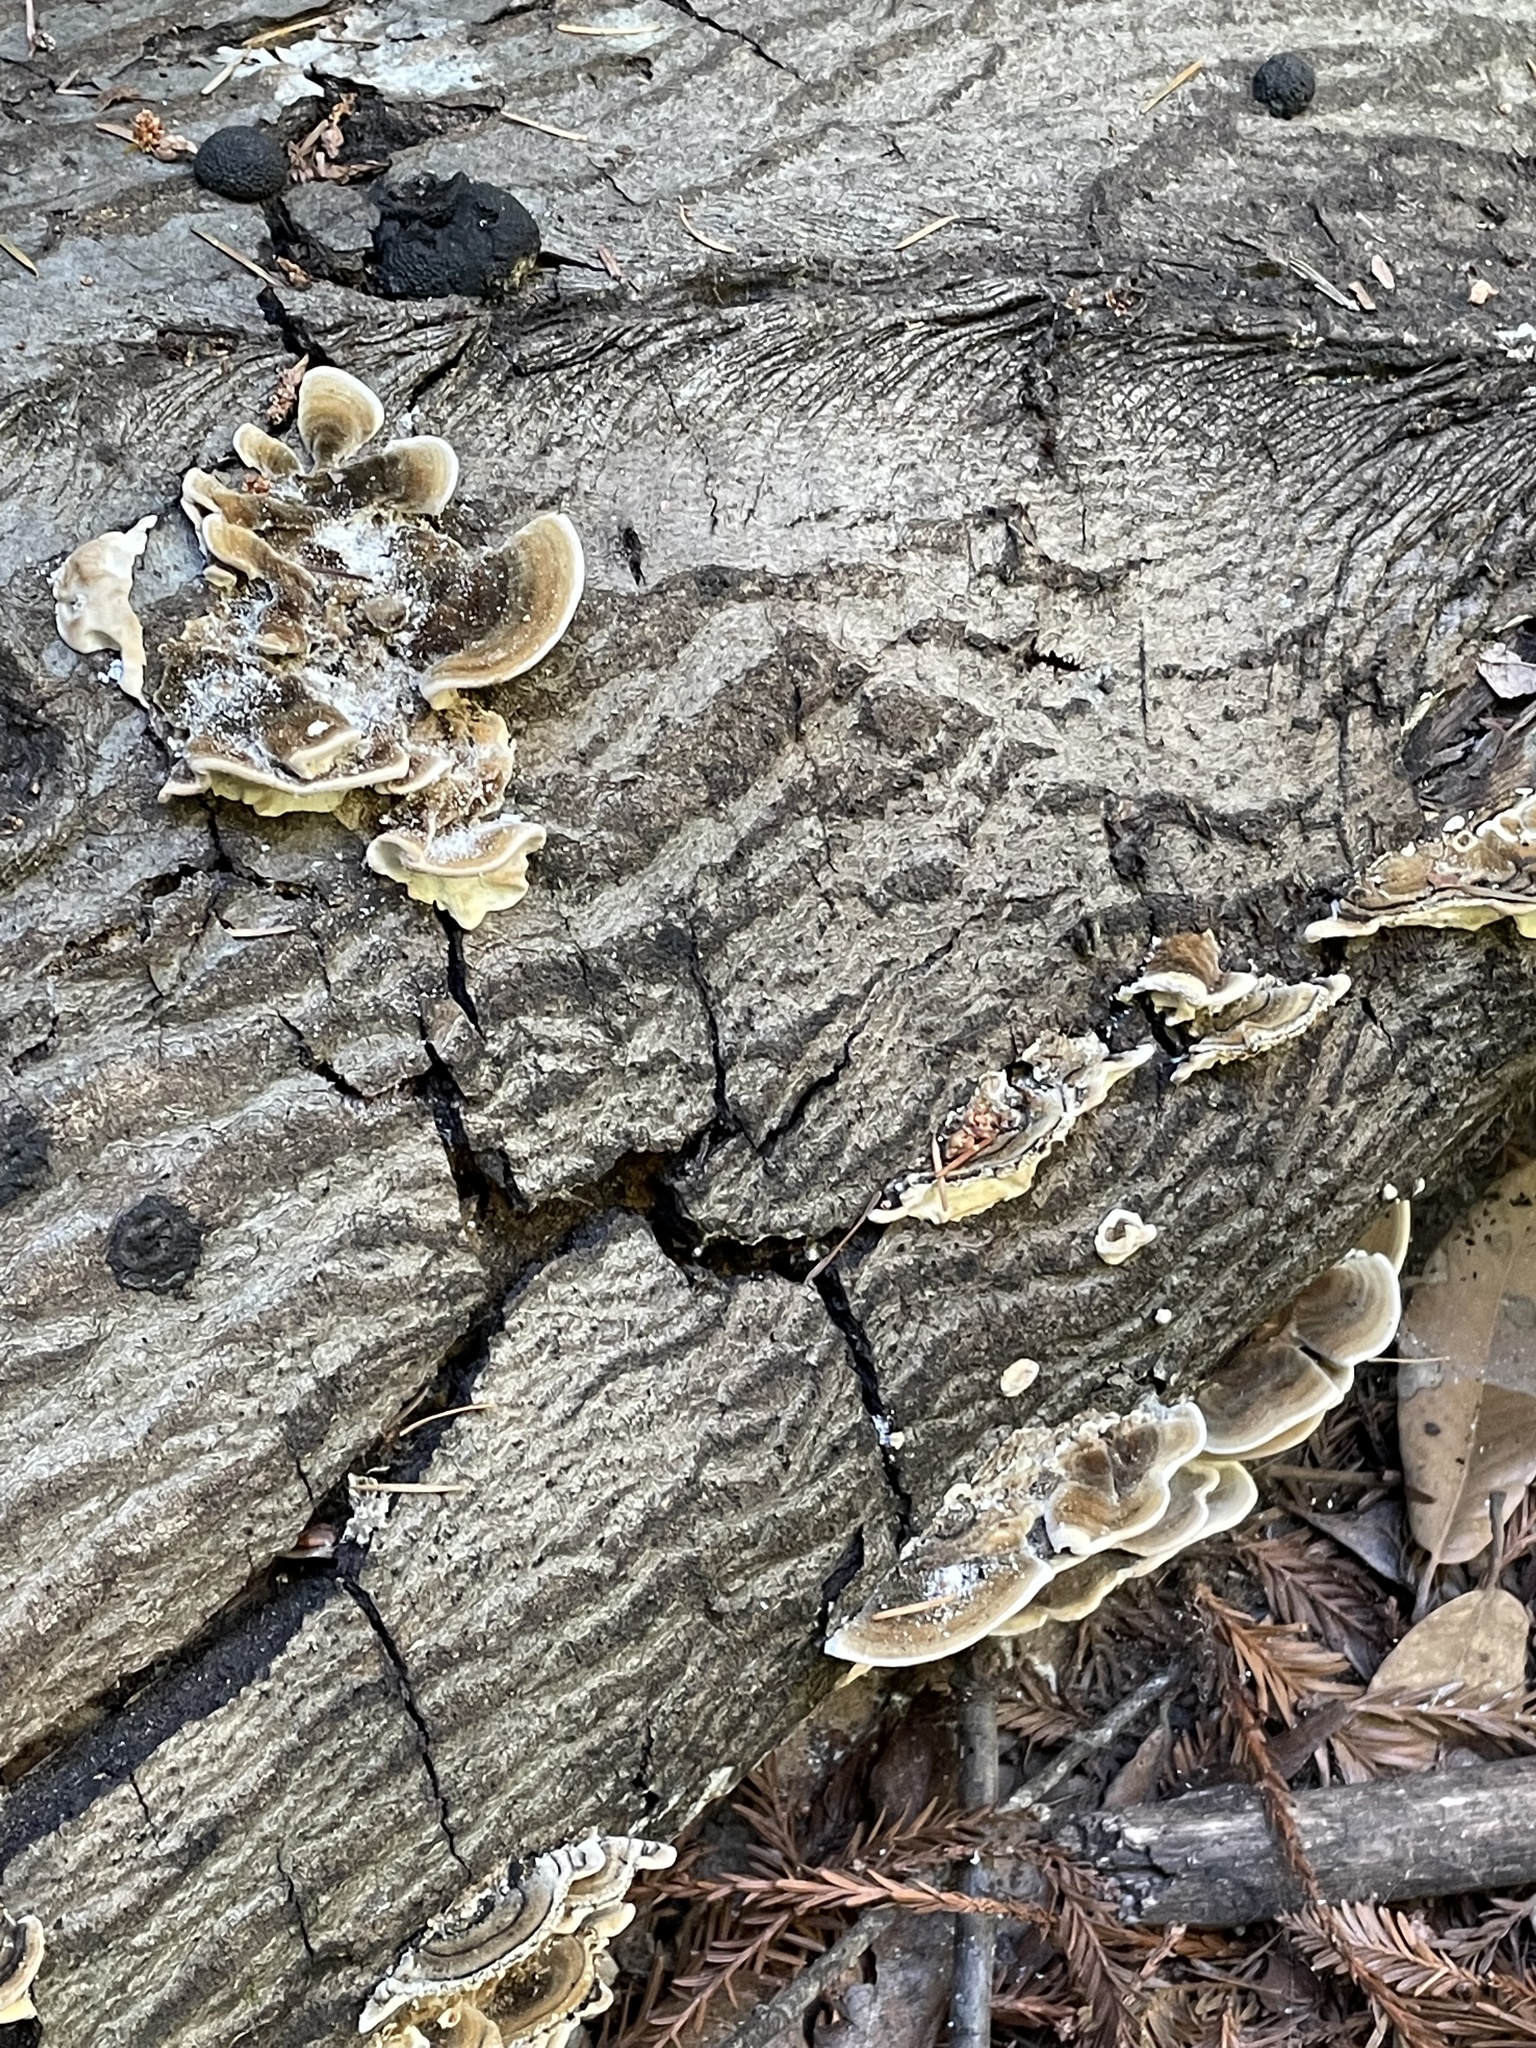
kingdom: Fungi
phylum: Basidiomycota
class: Agaricomycetes
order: Polyporales
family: Polyporaceae
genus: Trametes
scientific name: Trametes versicolor
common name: Turkeytail
